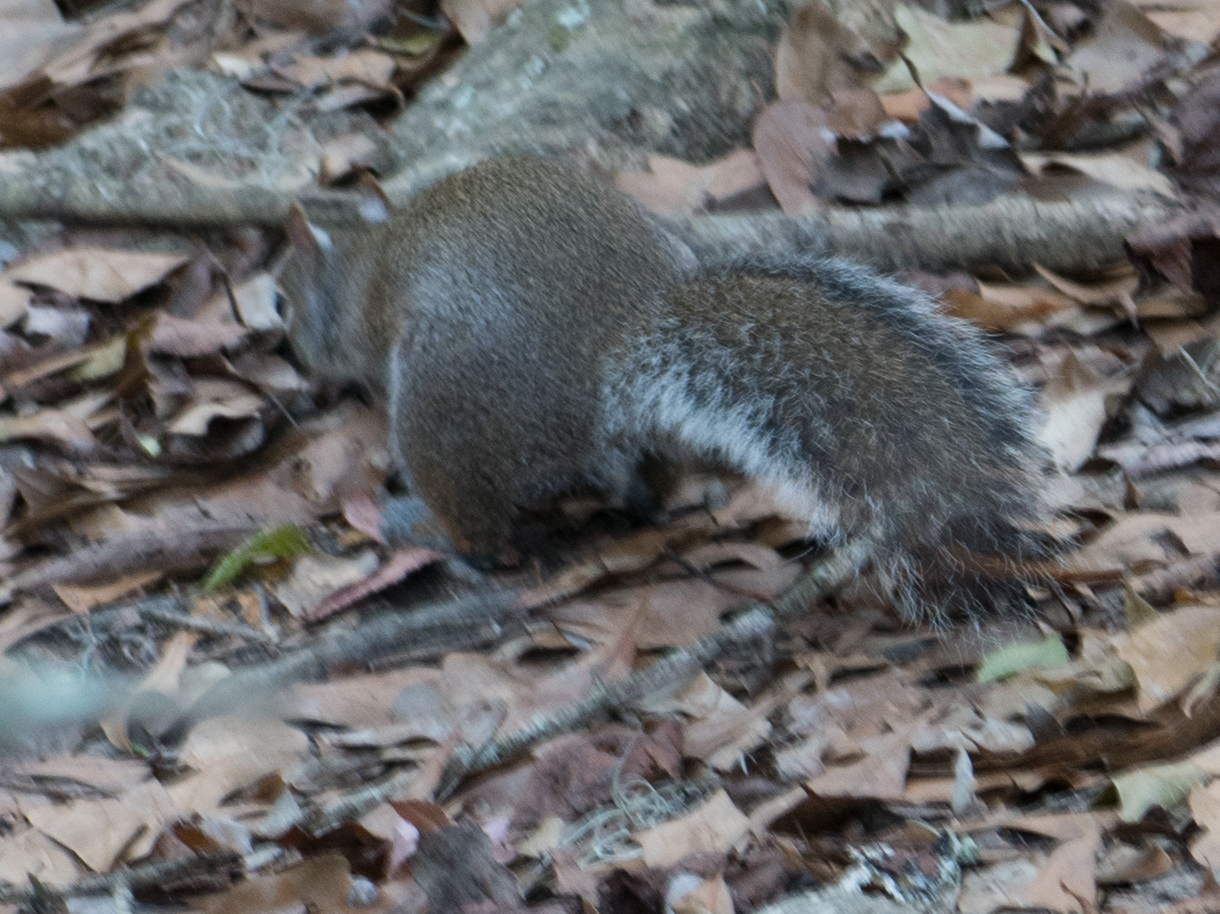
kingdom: Animalia
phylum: Chordata
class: Mammalia
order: Rodentia
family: Sciuridae
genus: Sciurus
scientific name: Sciurus carolinensis
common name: Eastern gray squirrel
